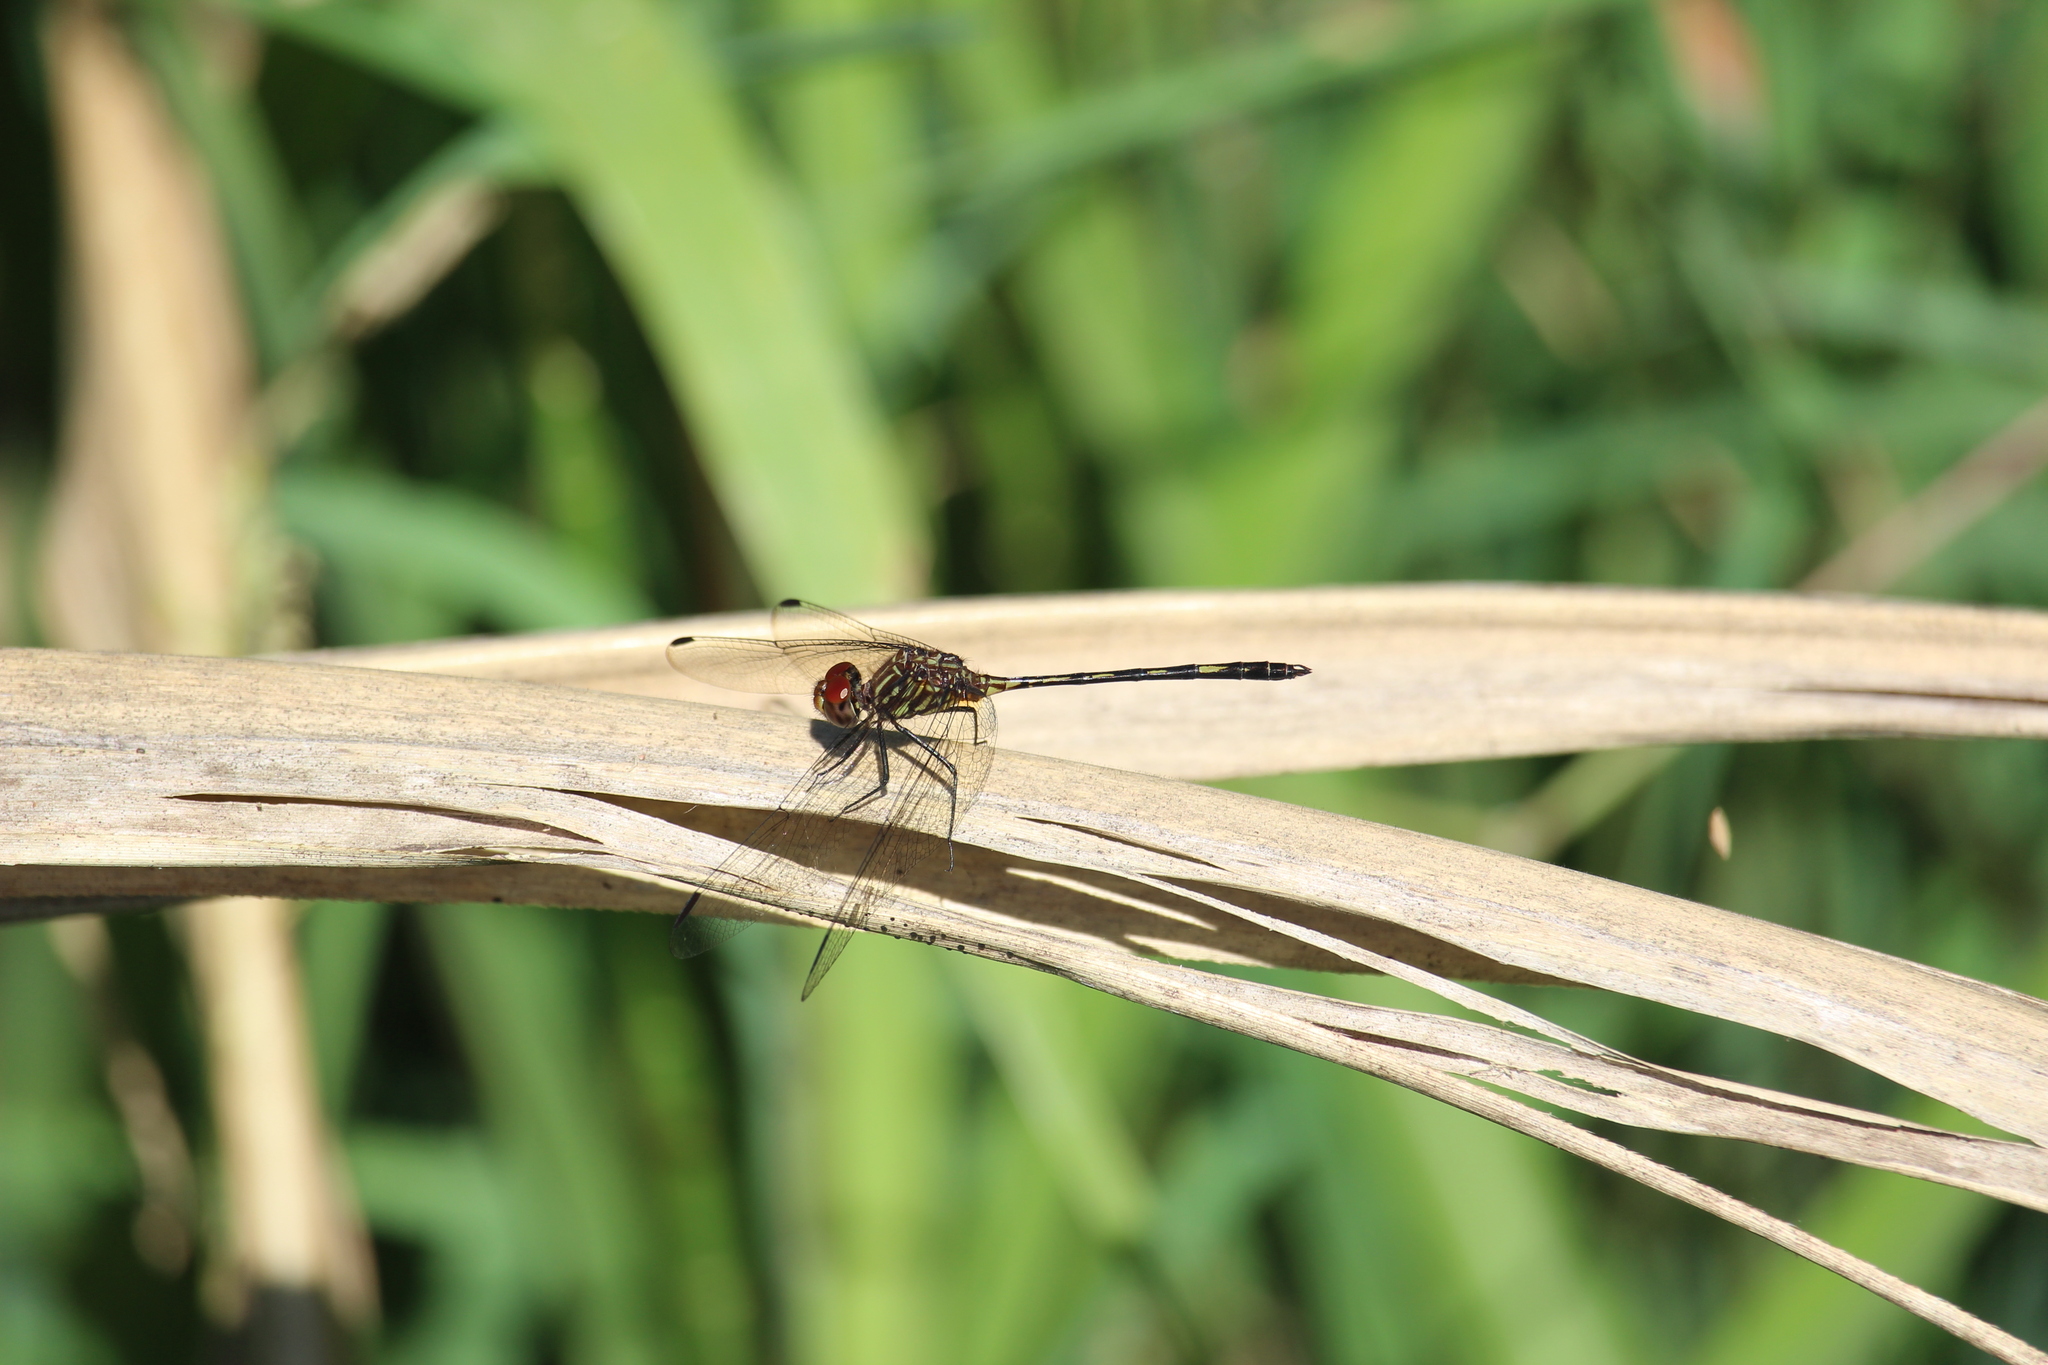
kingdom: Animalia
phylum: Arthropoda
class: Insecta
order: Odonata
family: Libellulidae
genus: Dythemis
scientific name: Dythemis sterilis
